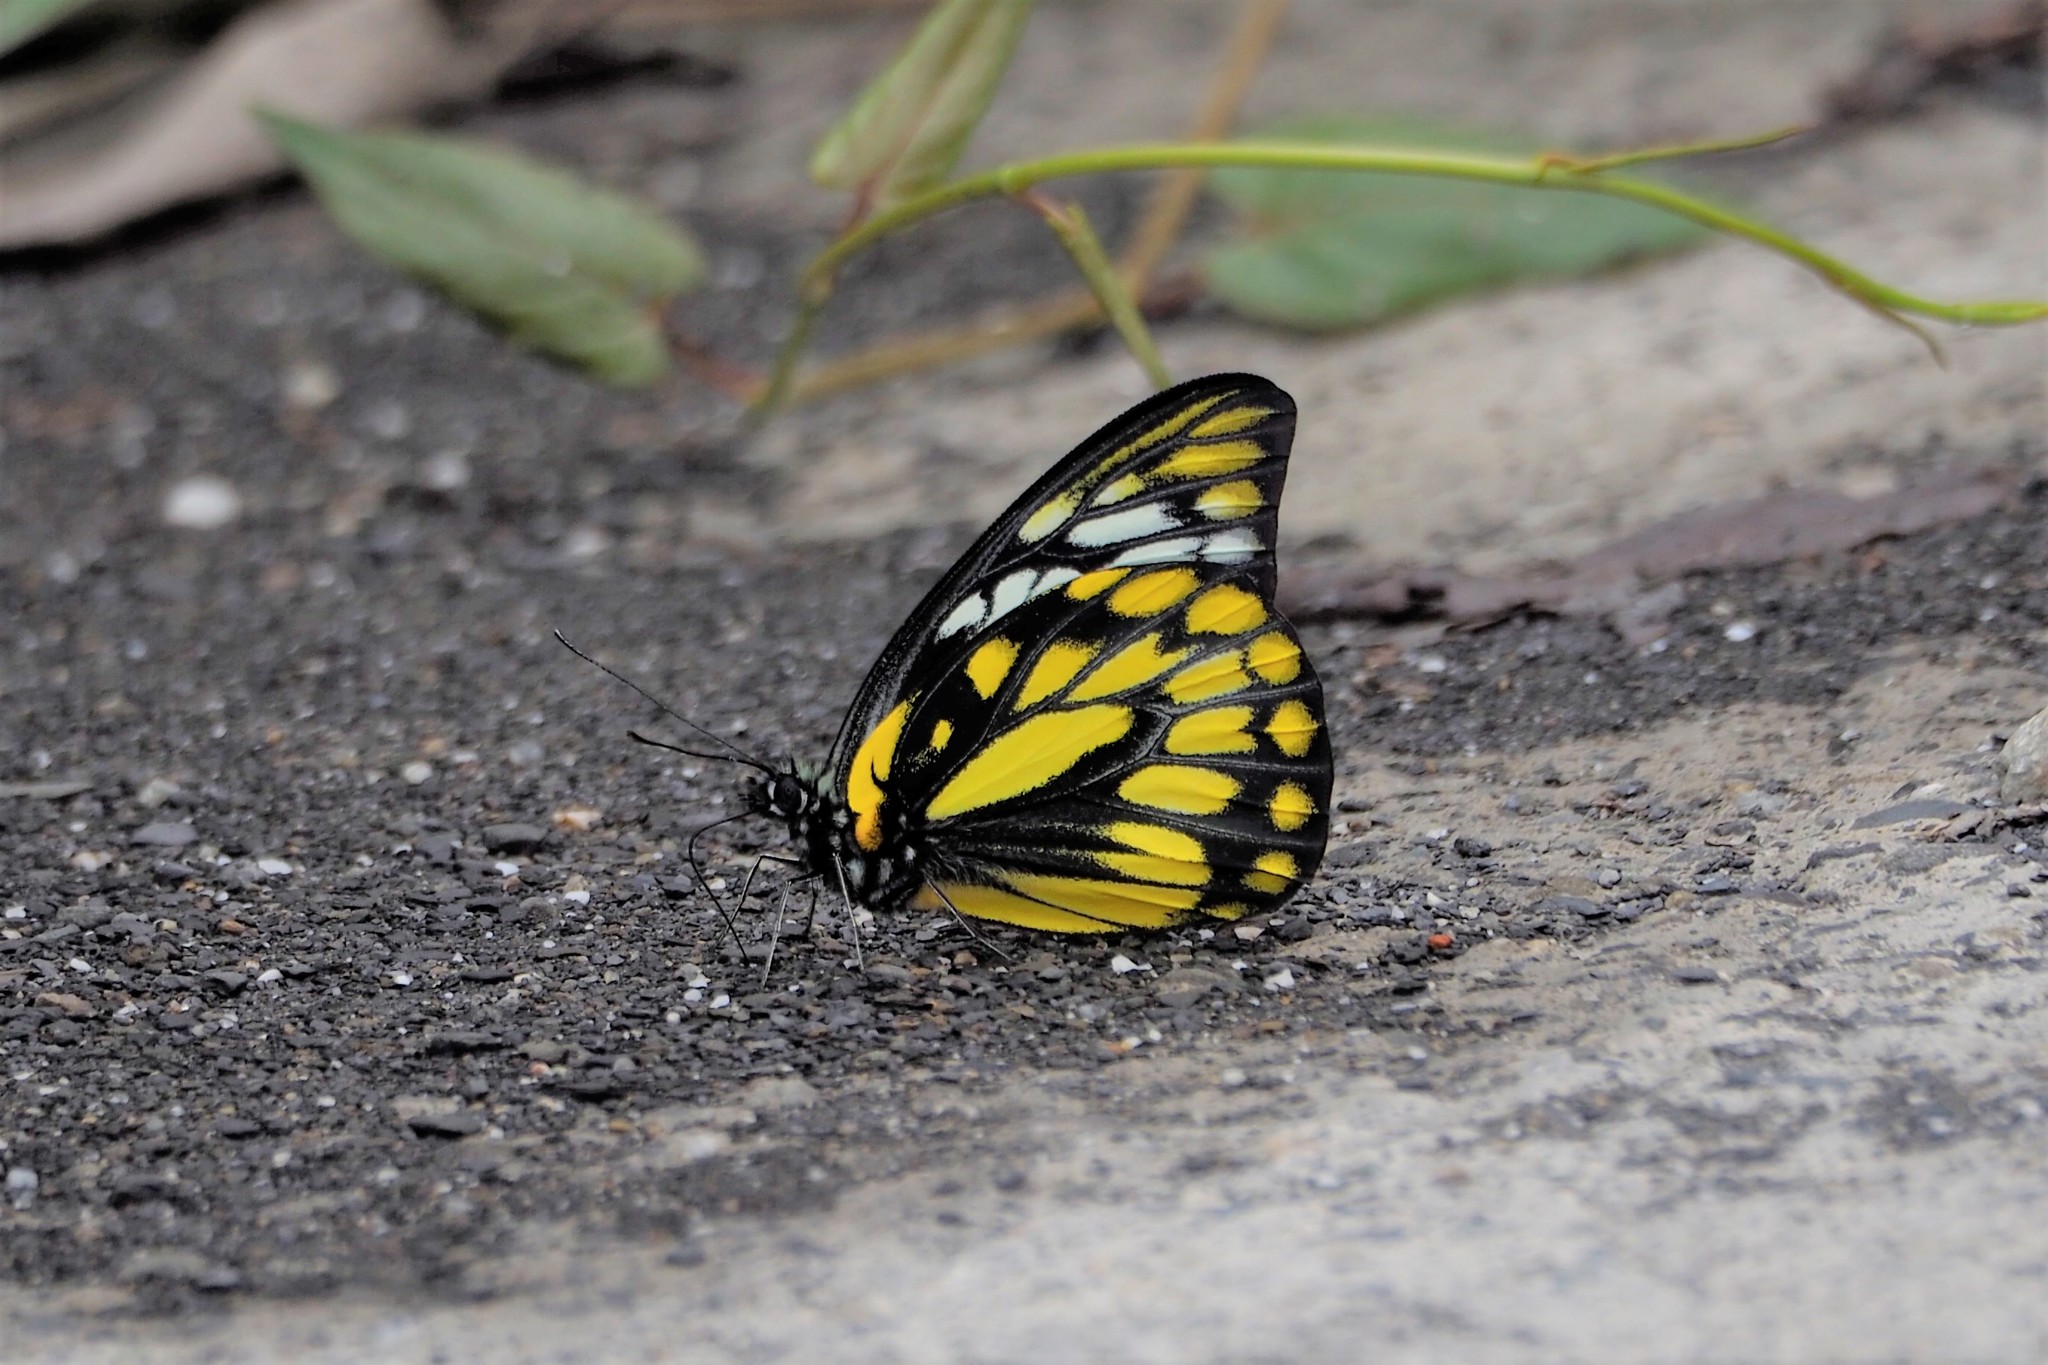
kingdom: Animalia
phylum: Arthropoda
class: Insecta
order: Lepidoptera
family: Pieridae
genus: Prioneris
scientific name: Prioneris thestylis
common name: Spotted sawtooth
